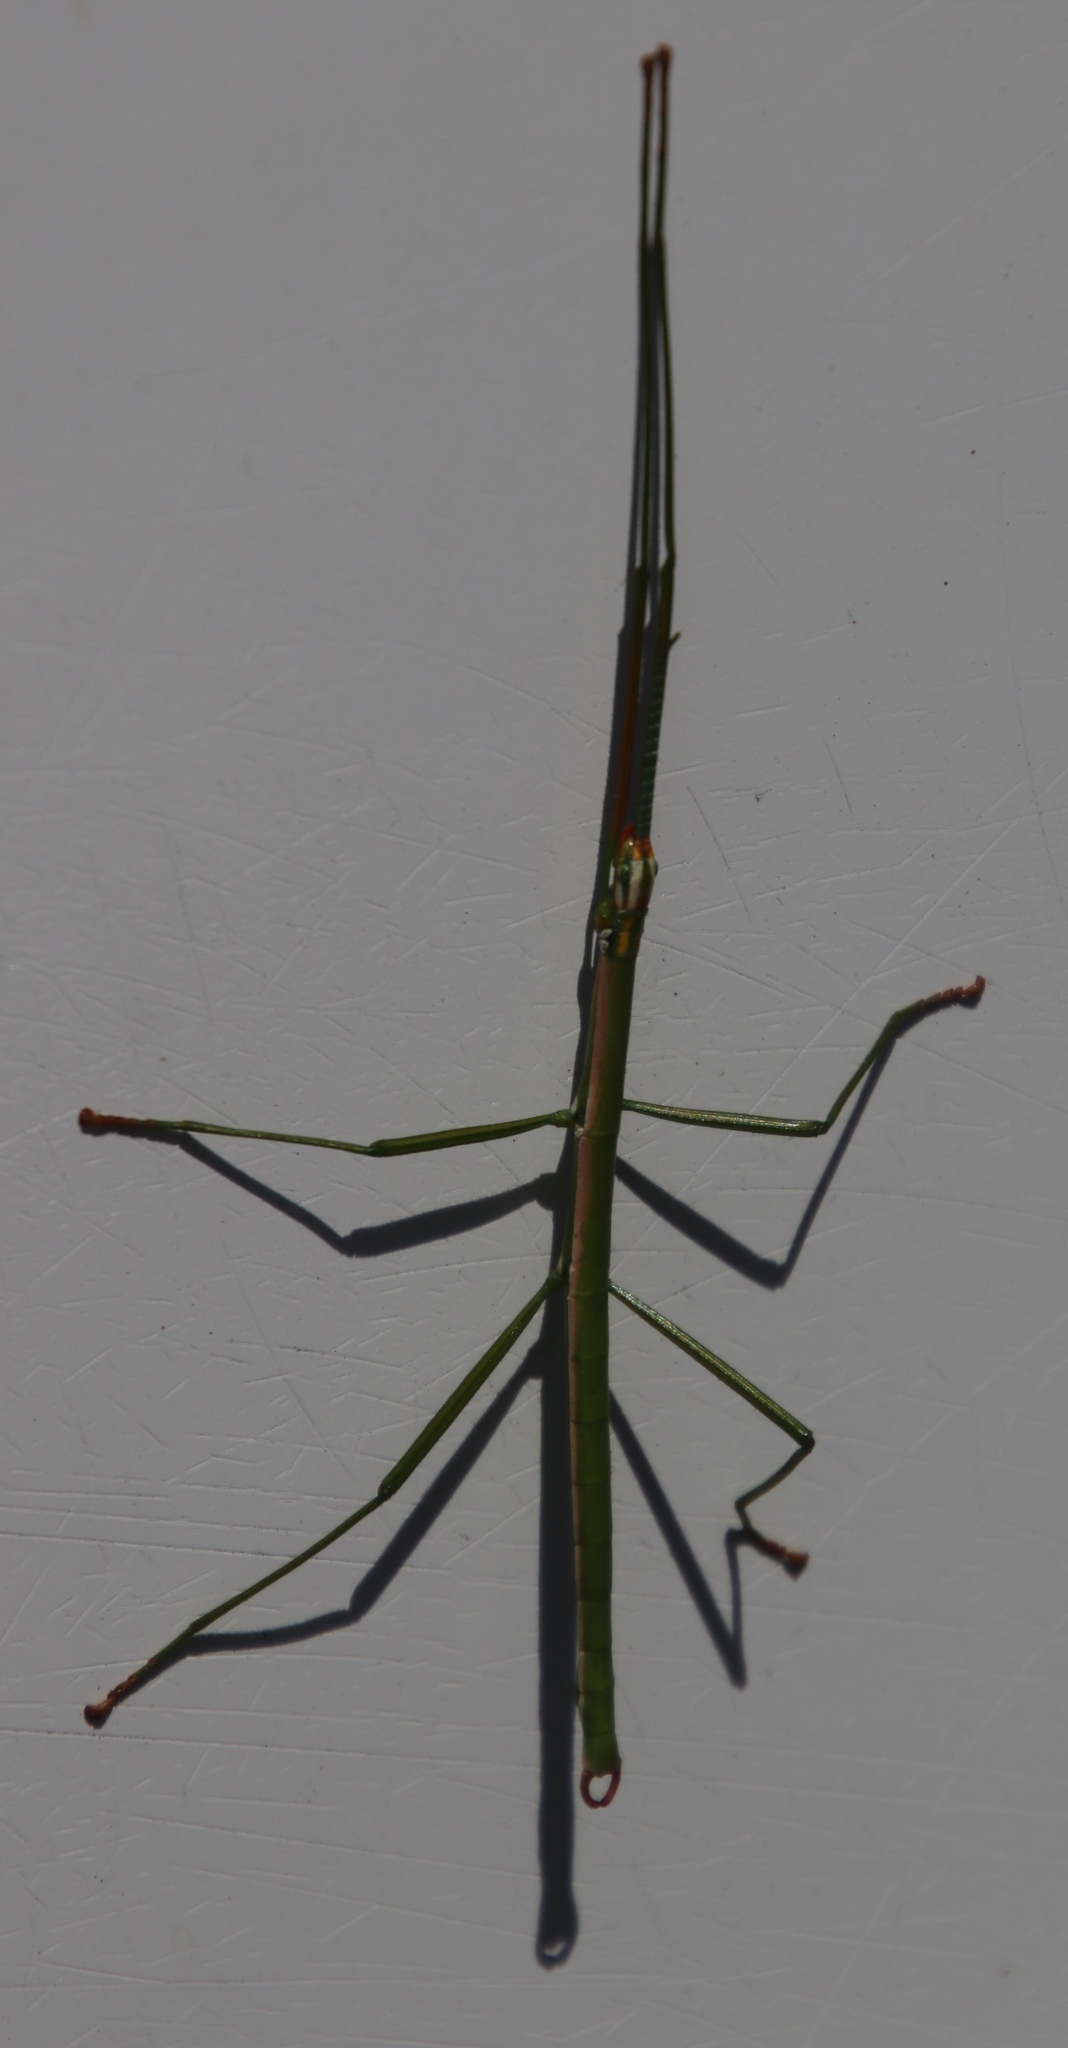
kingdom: Animalia
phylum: Arthropoda
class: Insecta
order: Phasmida
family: Bacillidae
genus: Macynia
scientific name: Macynia labiata
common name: Thunberg's stick insect
